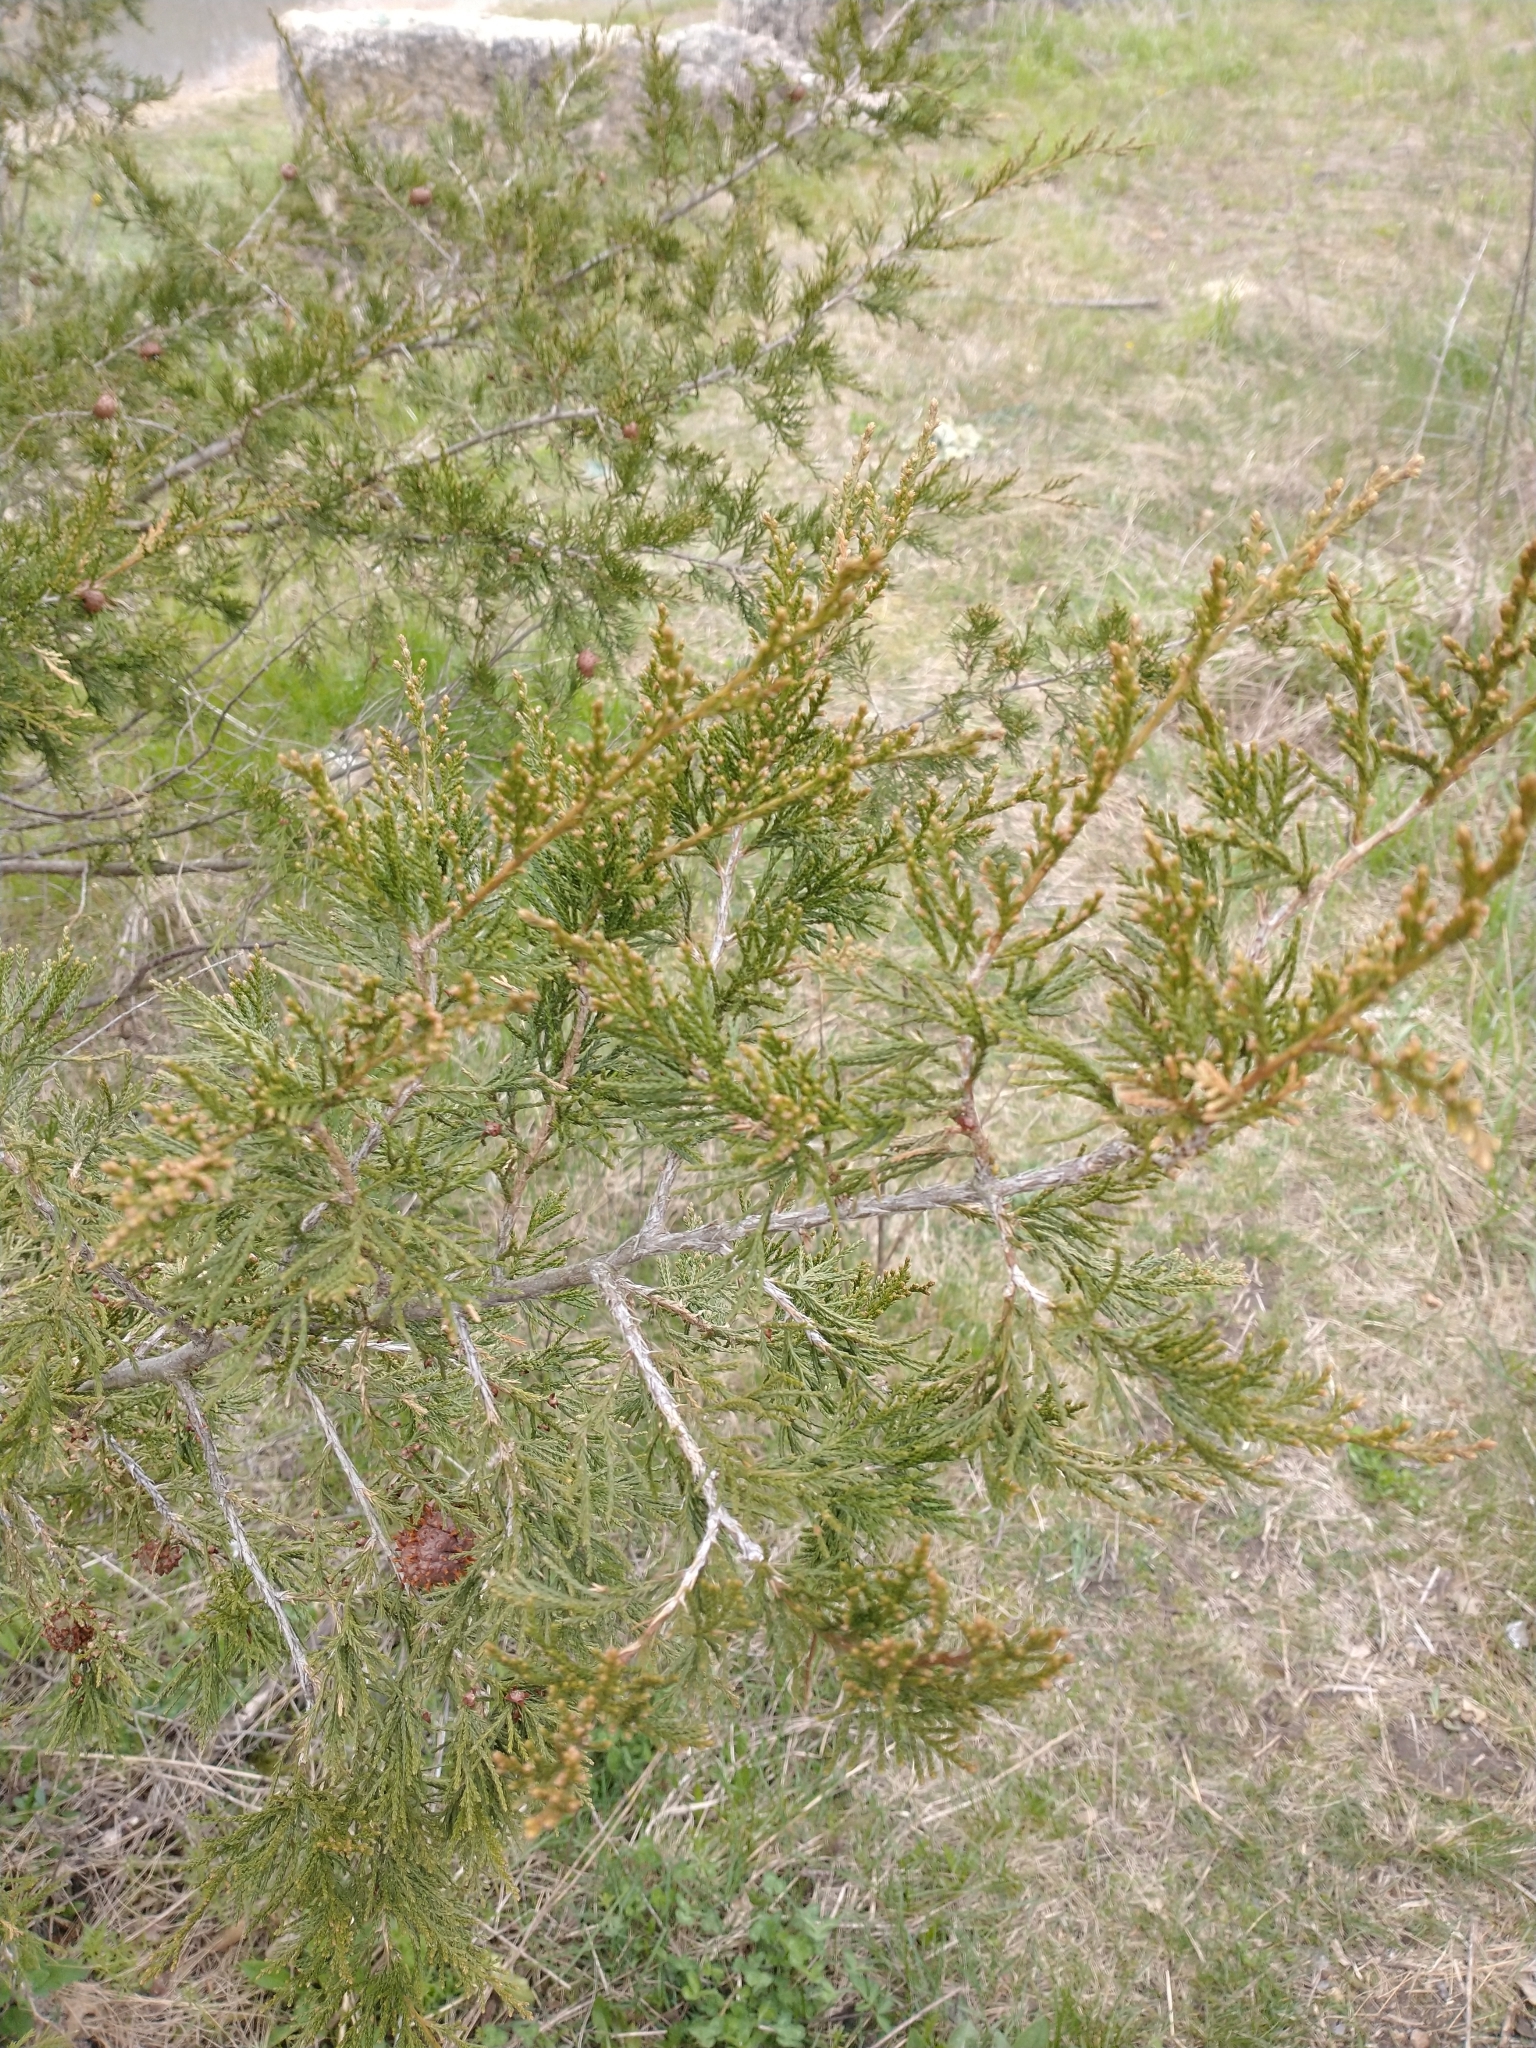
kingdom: Plantae
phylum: Tracheophyta
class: Pinopsida
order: Pinales
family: Cupressaceae
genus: Juniperus
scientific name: Juniperus virginiana
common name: Red juniper
